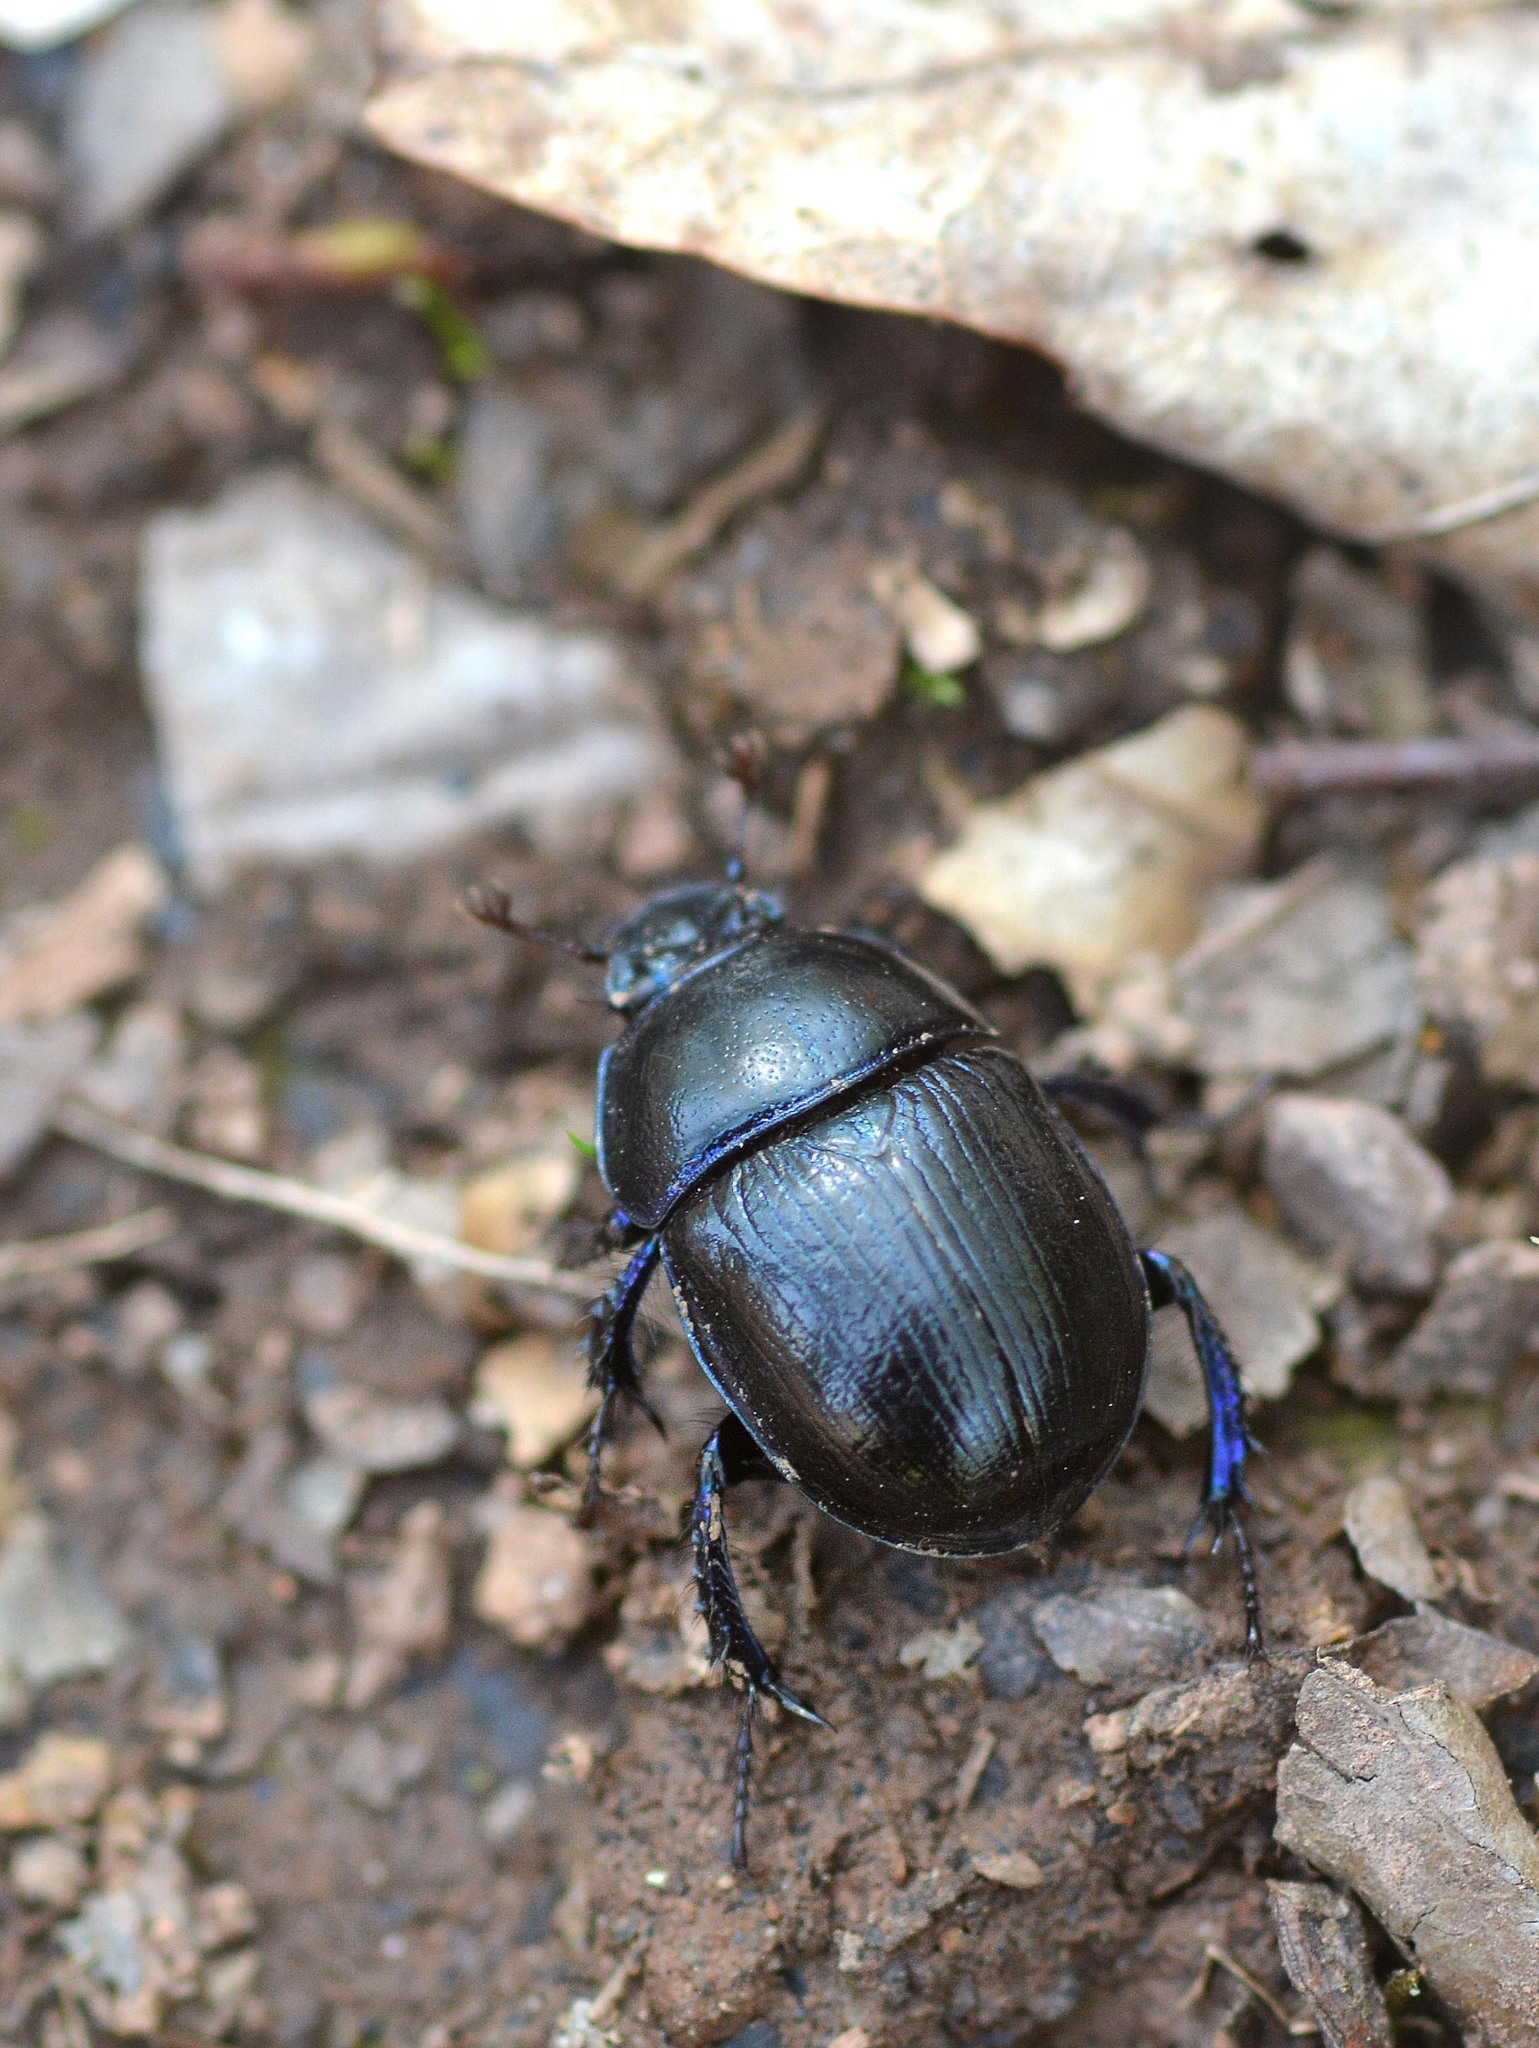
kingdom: Animalia
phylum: Arthropoda
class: Insecta
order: Coleoptera
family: Geotrupidae
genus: Anoplotrupes
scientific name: Anoplotrupes stercorosus
